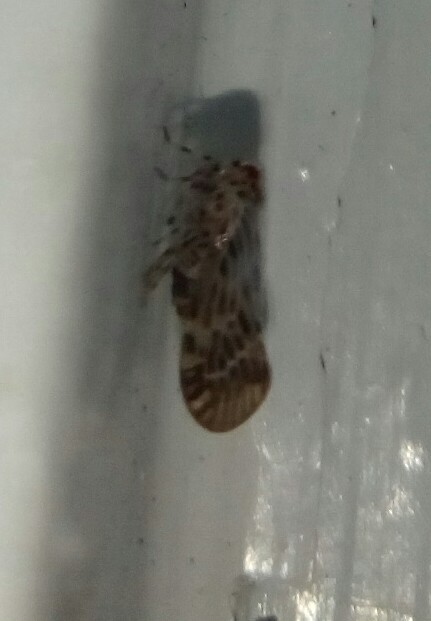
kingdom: Animalia
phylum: Arthropoda
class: Insecta
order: Hemiptera
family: Derbidae
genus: Cedusa
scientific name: Cedusa maculata
